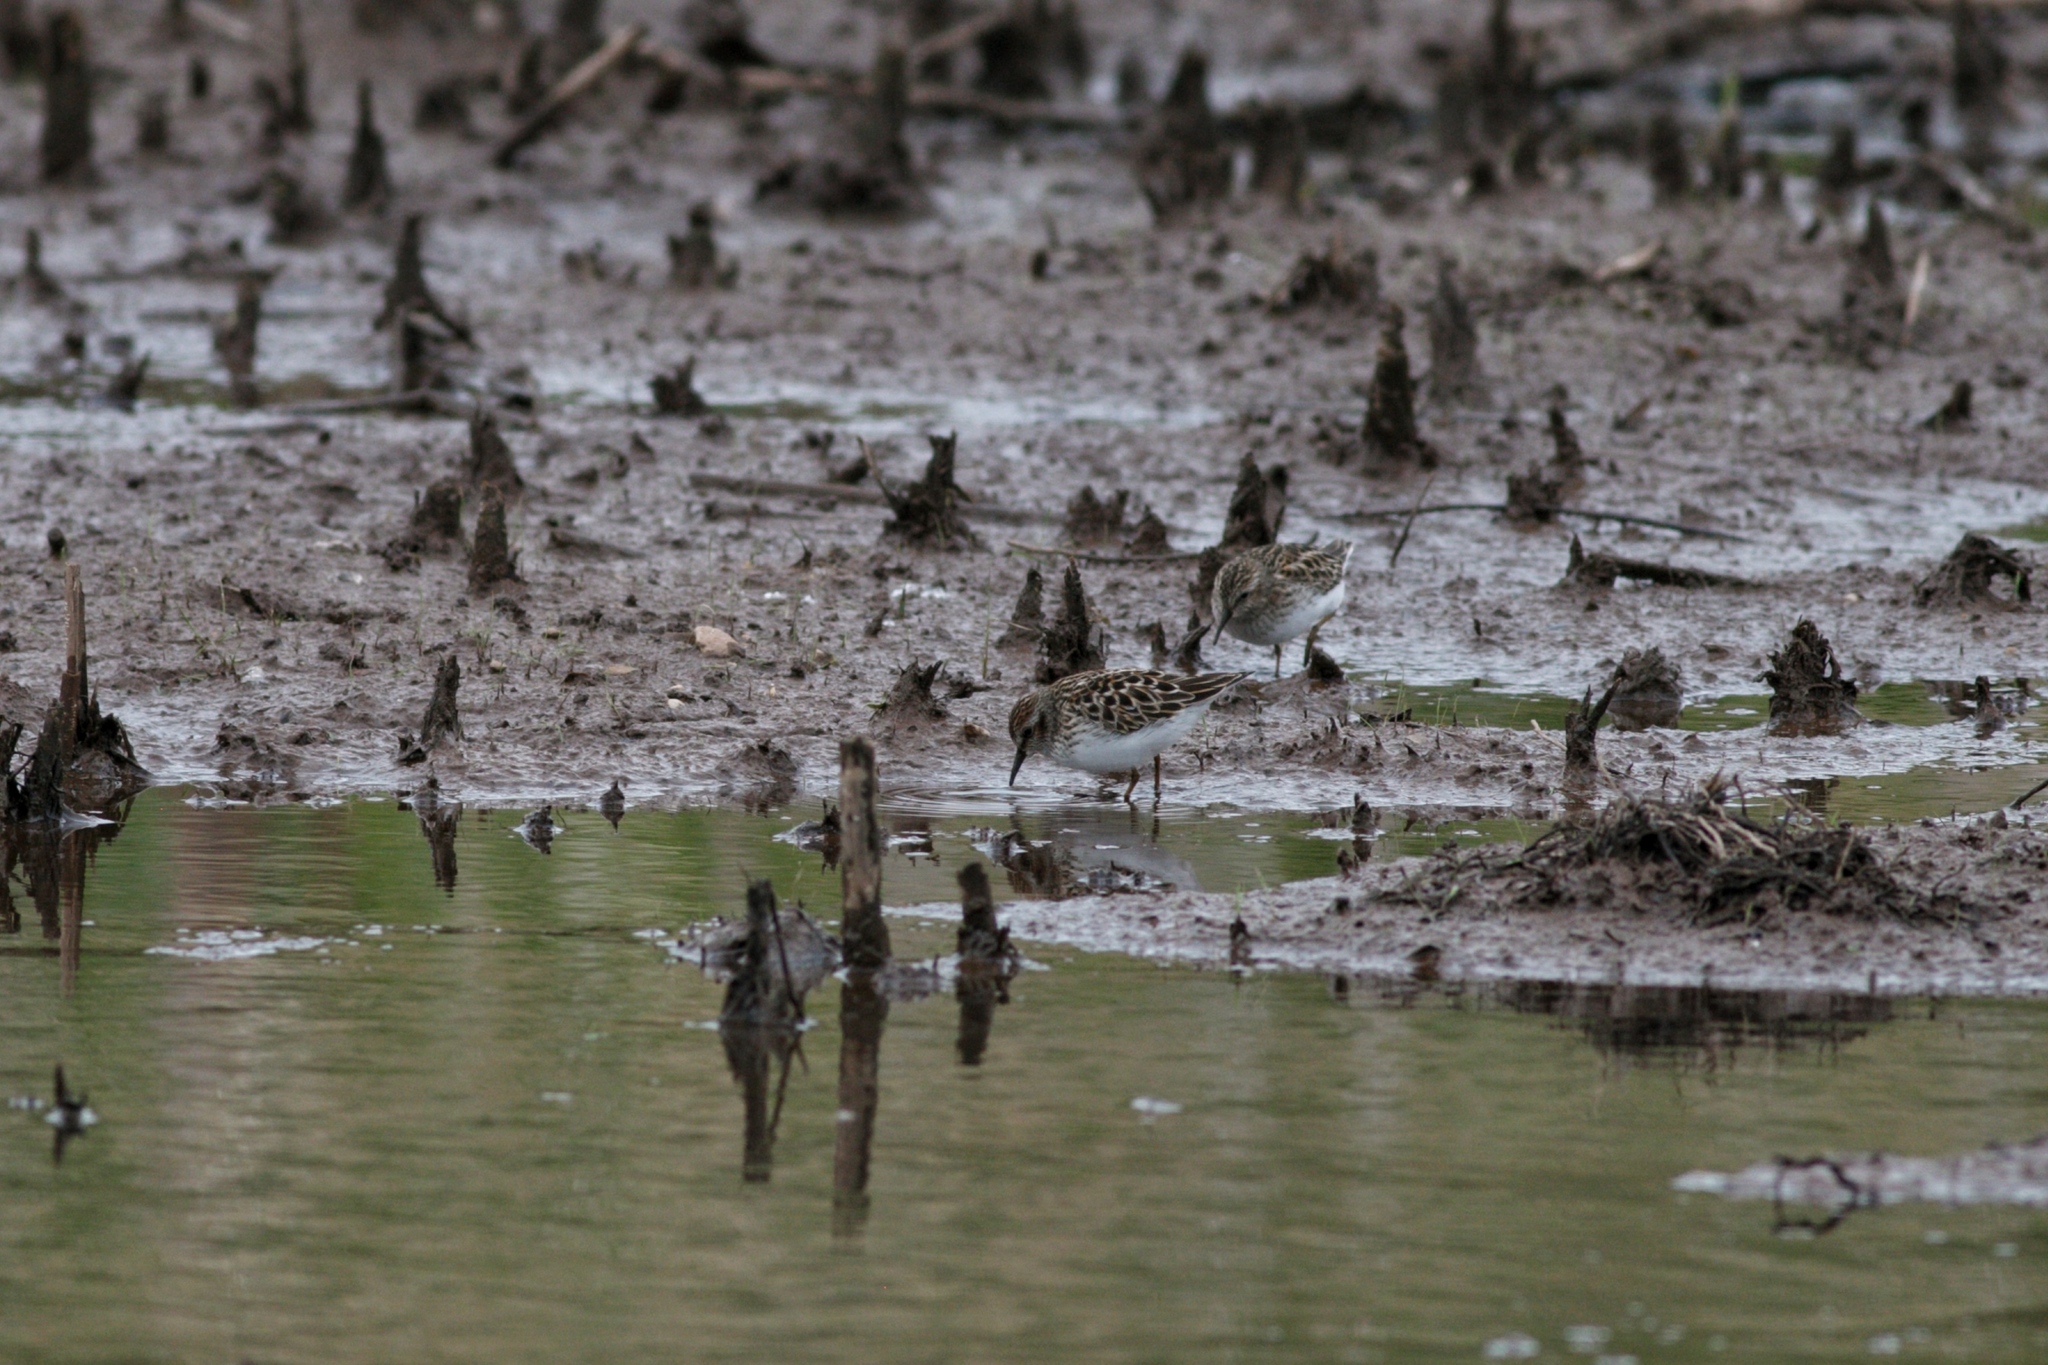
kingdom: Animalia
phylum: Chordata
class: Aves
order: Charadriiformes
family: Scolopacidae
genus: Calidris
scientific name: Calidris minutilla
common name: Least sandpiper
